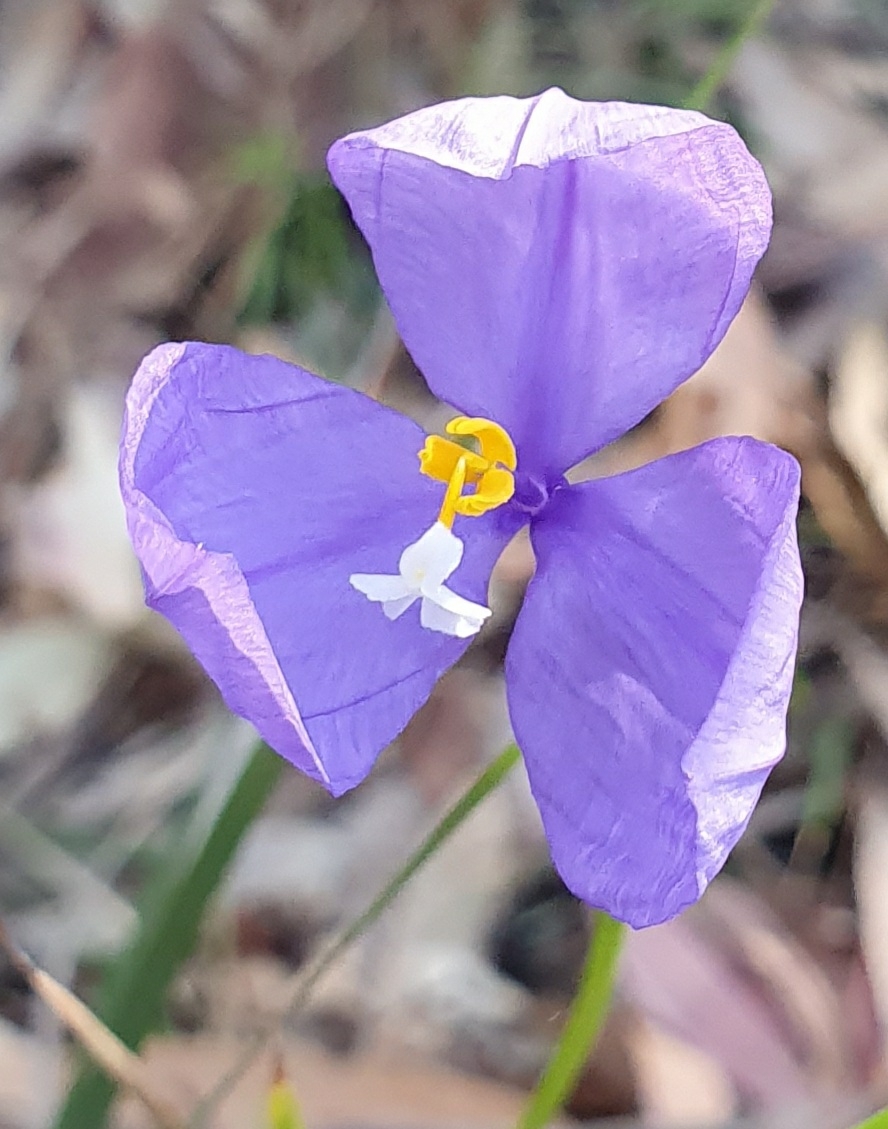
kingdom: Plantae
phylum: Tracheophyta
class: Liliopsida
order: Asparagales
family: Iridaceae
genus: Patersonia
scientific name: Patersonia glabrata
